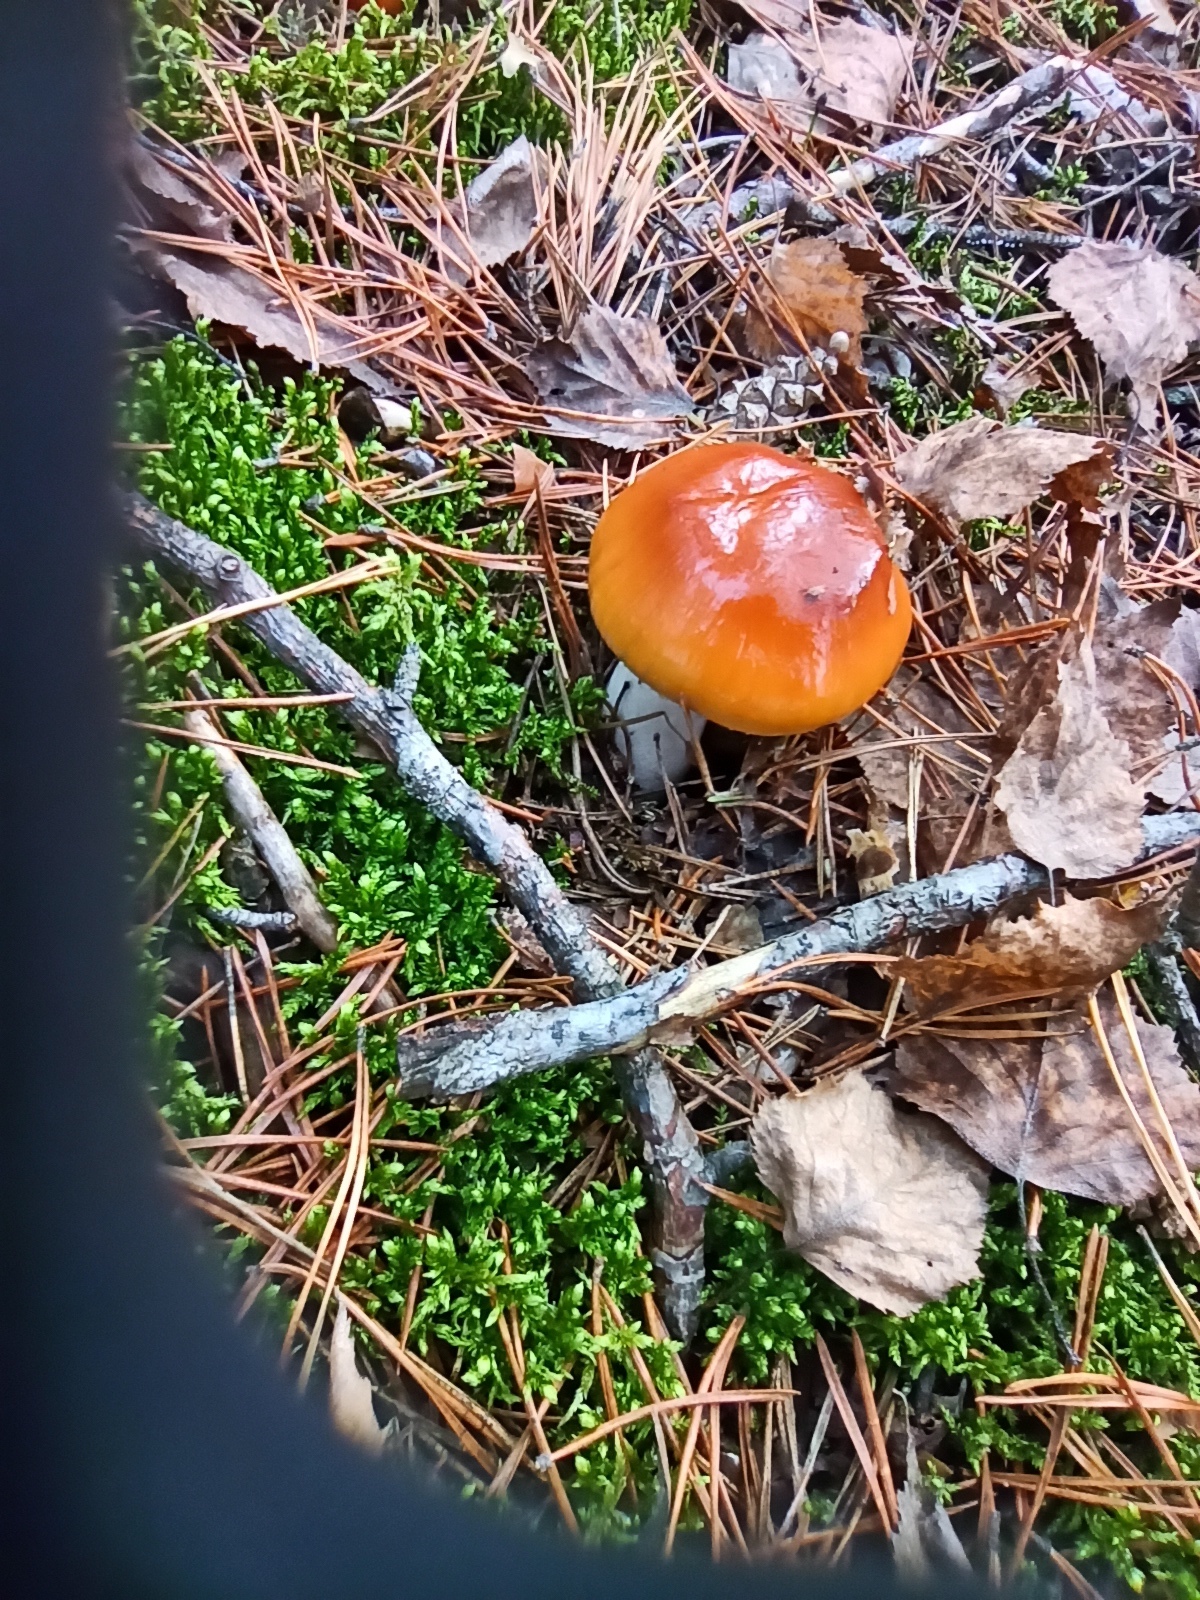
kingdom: Fungi
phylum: Basidiomycota
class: Agaricomycetes
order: Agaricales
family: Cortinariaceae
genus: Cortinarius
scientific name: Cortinarius mucosus
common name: Orange webcap
